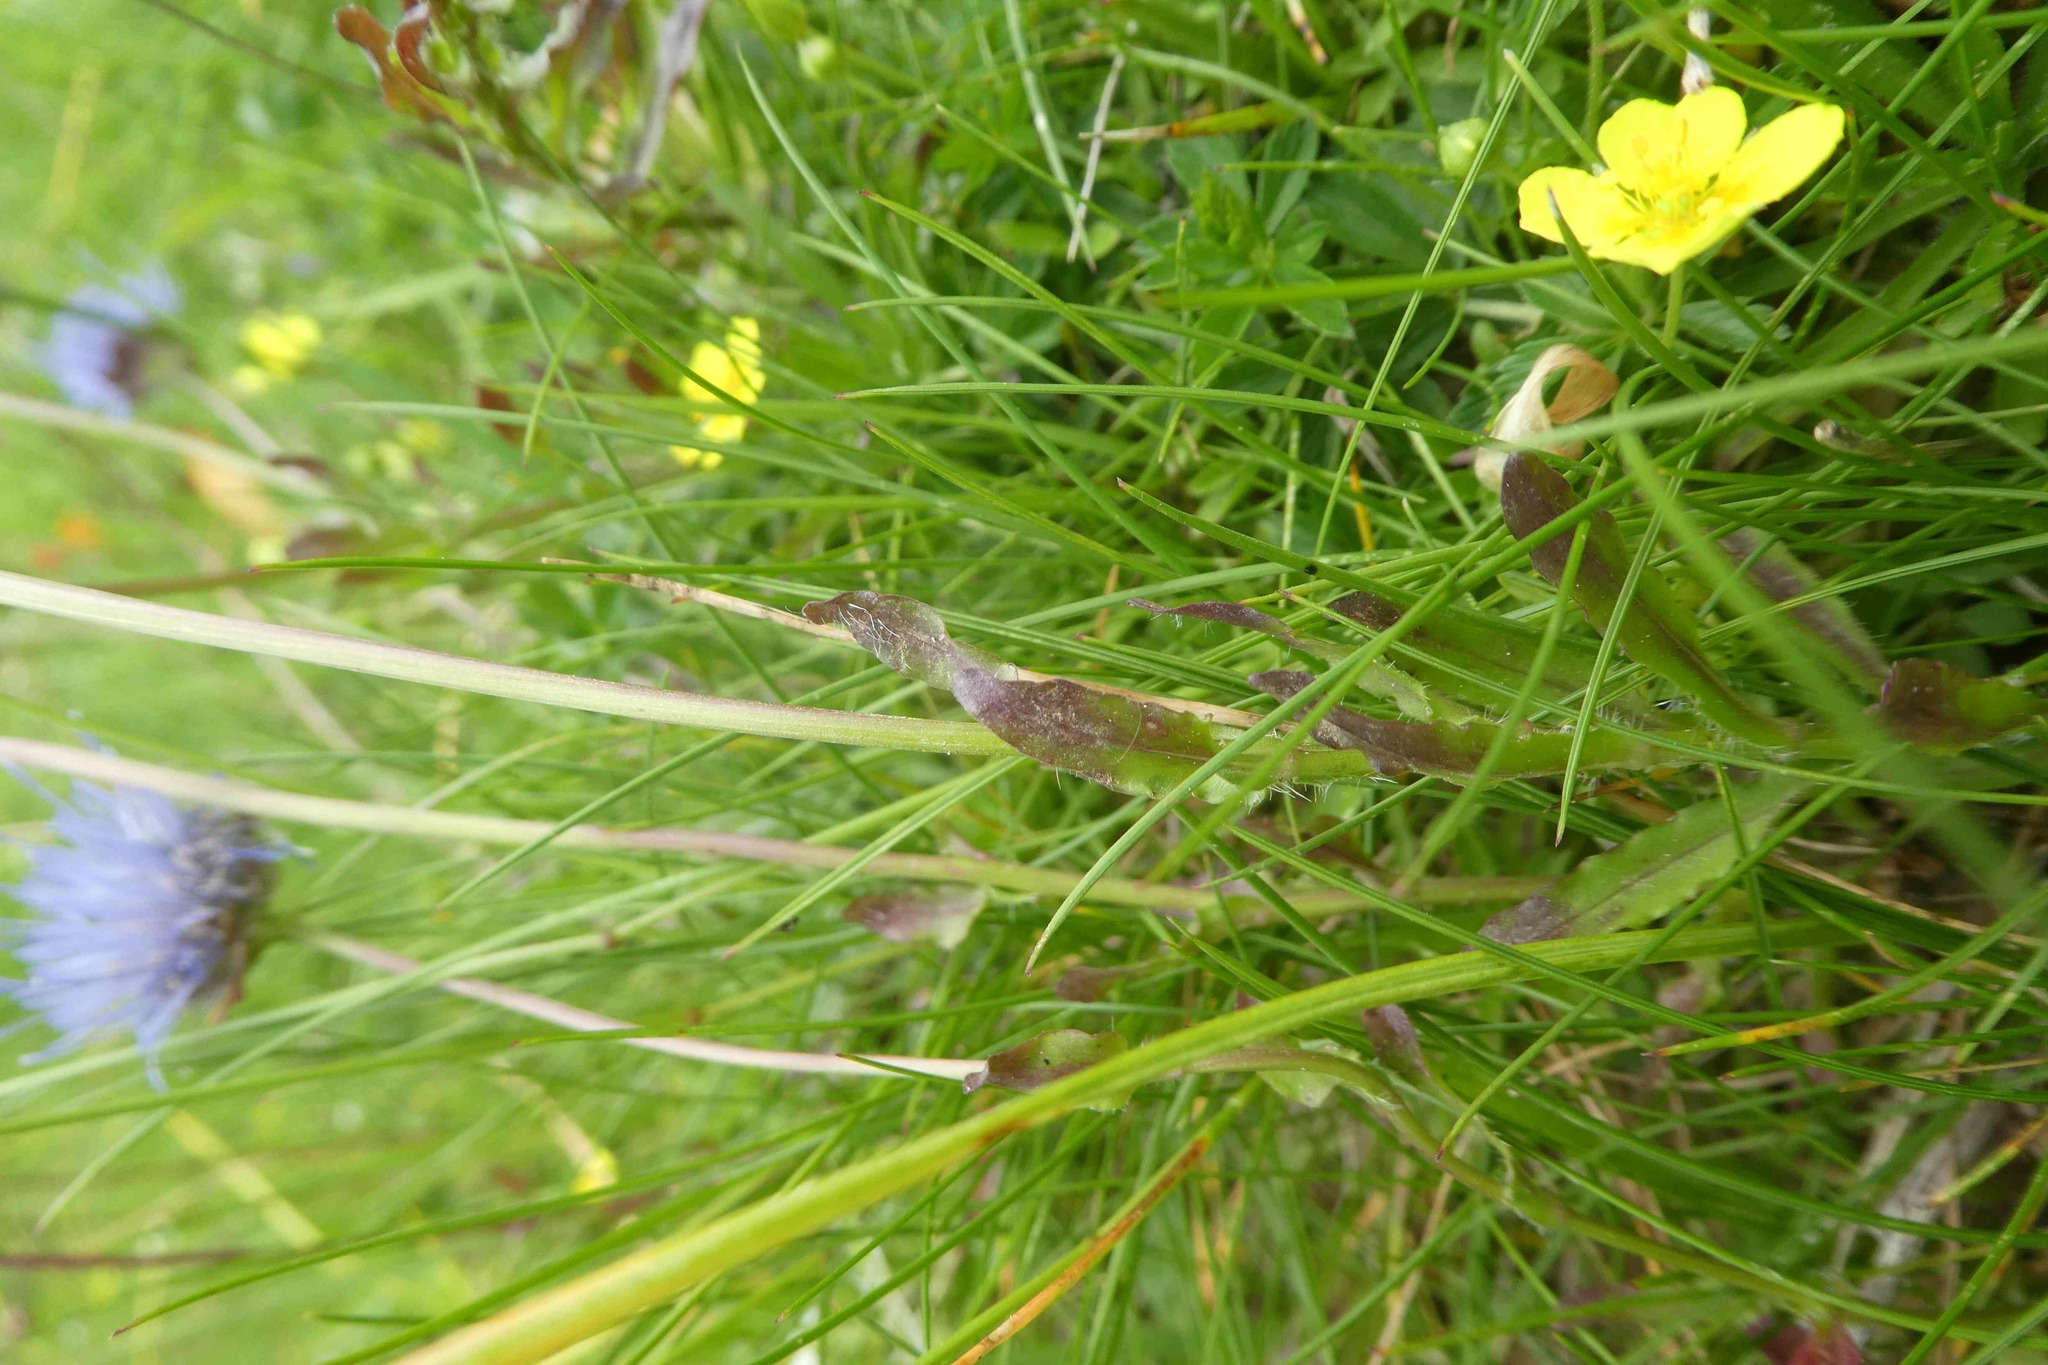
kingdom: Plantae
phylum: Tracheophyta
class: Magnoliopsida
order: Asterales
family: Campanulaceae
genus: Jasione
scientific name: Jasione laevis
